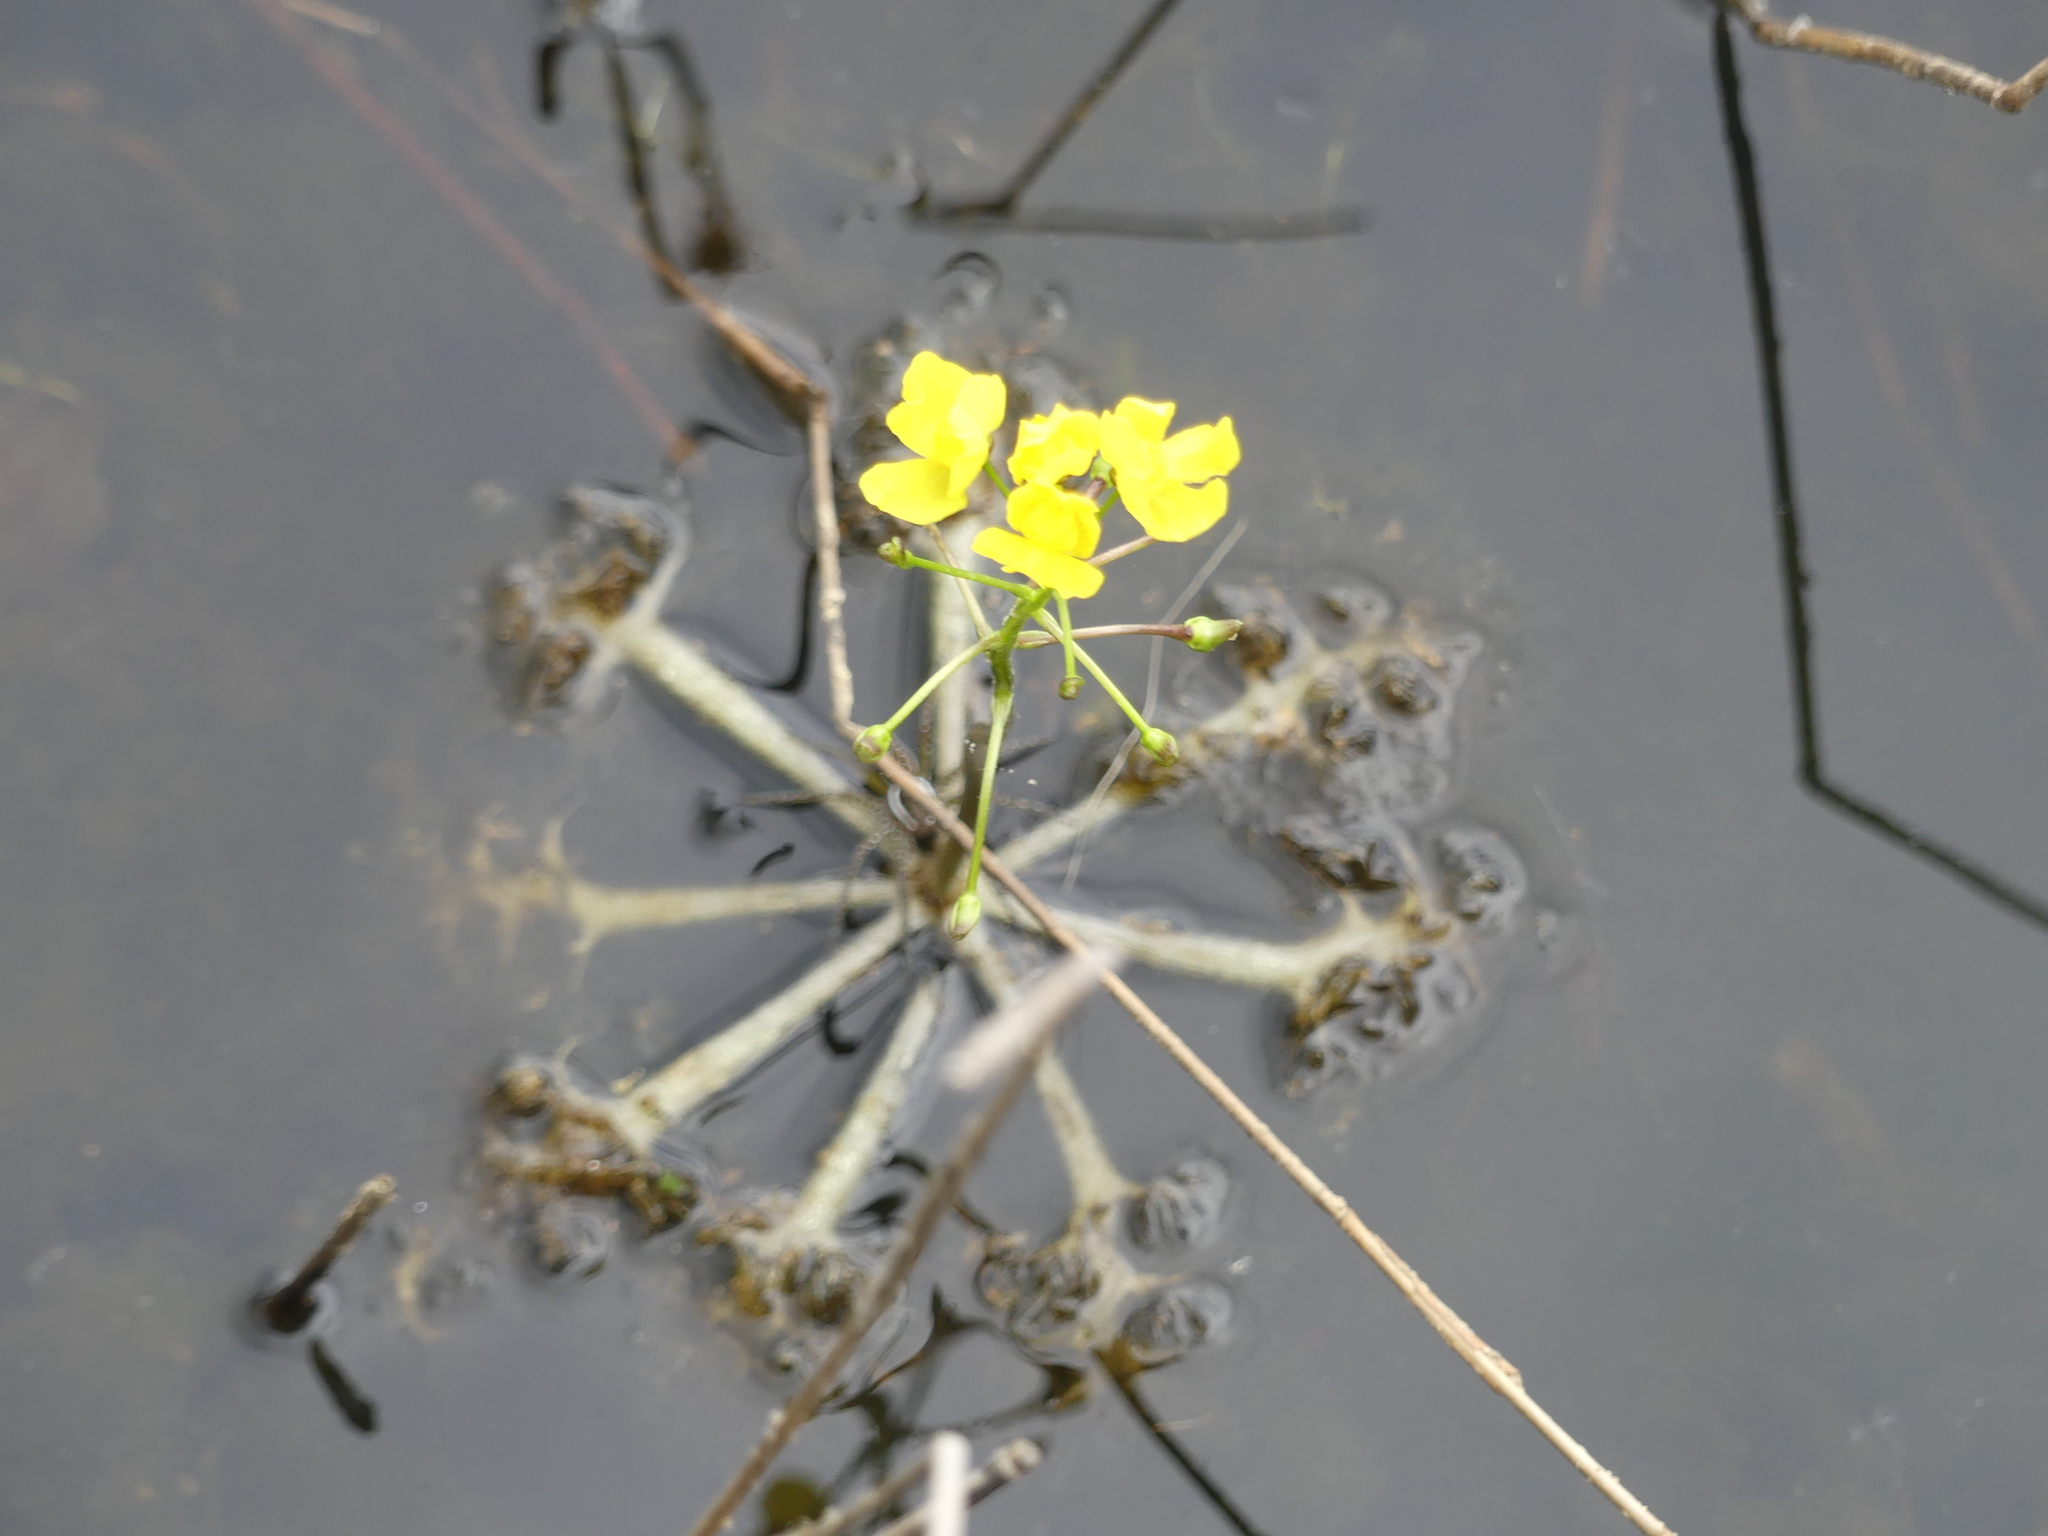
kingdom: Plantae
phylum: Tracheophyta
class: Magnoliopsida
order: Lamiales
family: Lentibulariaceae
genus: Utricularia
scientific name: Utricularia inflata
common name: Floating bladderwort
